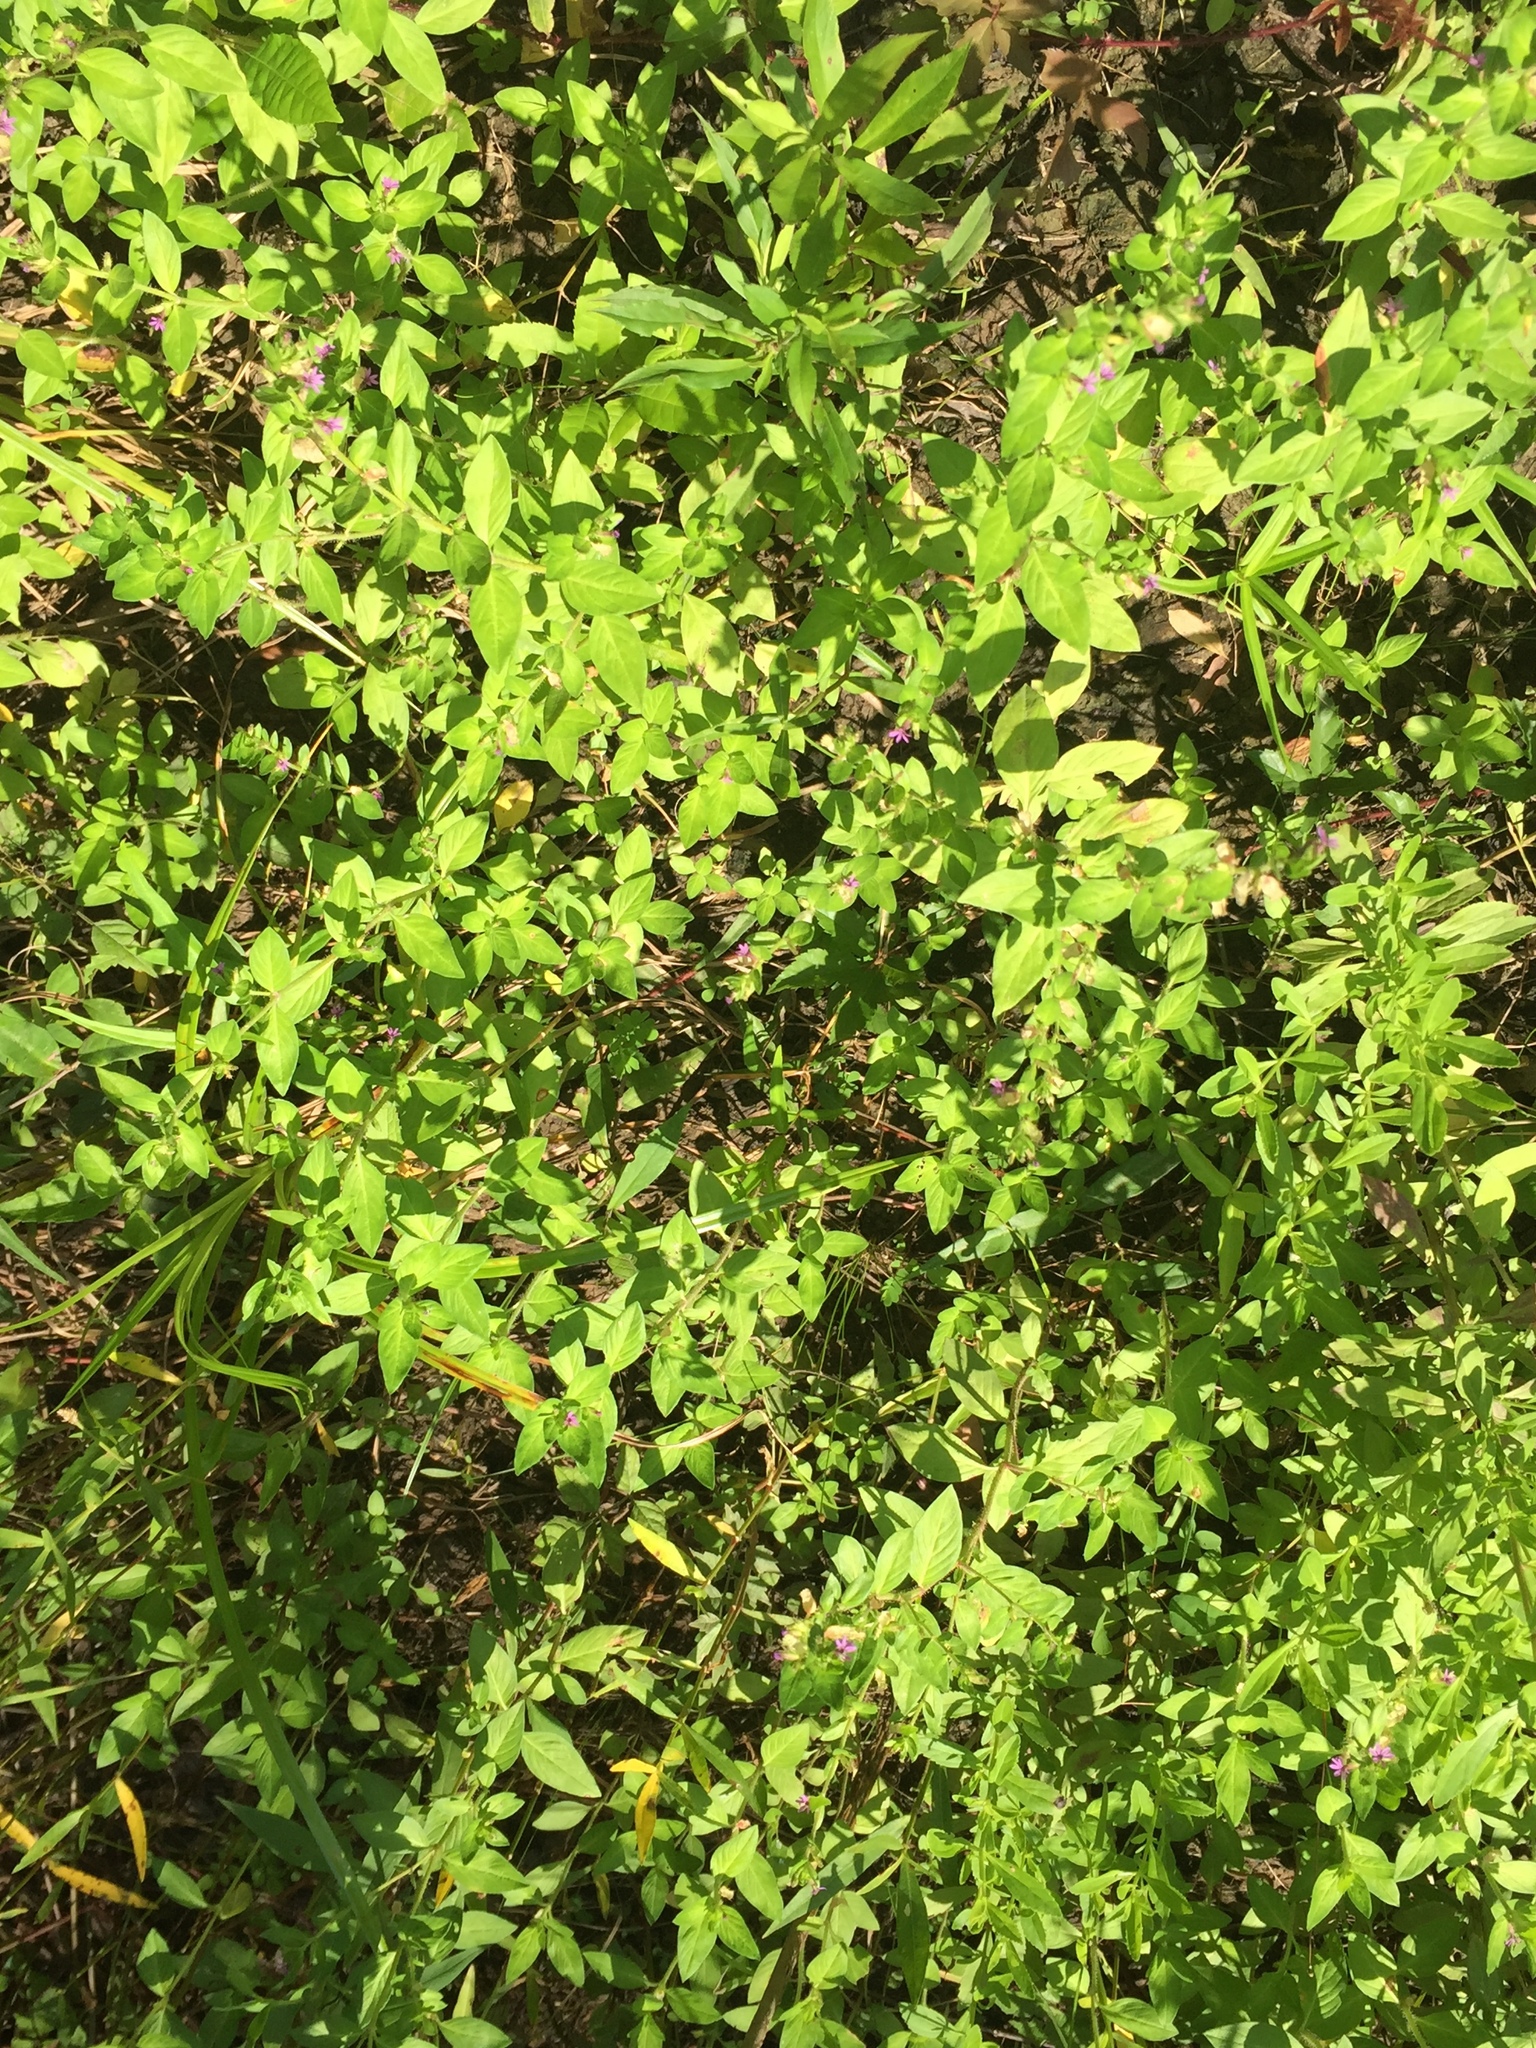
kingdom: Plantae
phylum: Tracheophyta
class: Magnoliopsida
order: Myrtales
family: Lythraceae
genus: Cuphea
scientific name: Cuphea carthagenensis
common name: Colombian waxweed
